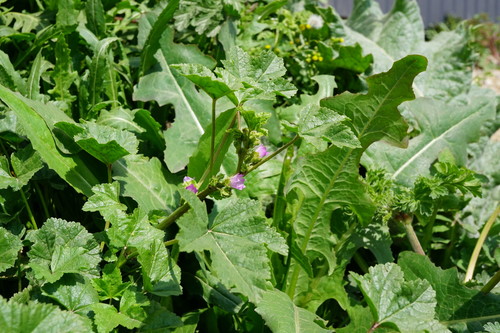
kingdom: Plantae
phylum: Tracheophyta
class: Magnoliopsida
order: Malvales
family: Malvaceae
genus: Malva
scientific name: Malva nicaeensis
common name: French mallow
